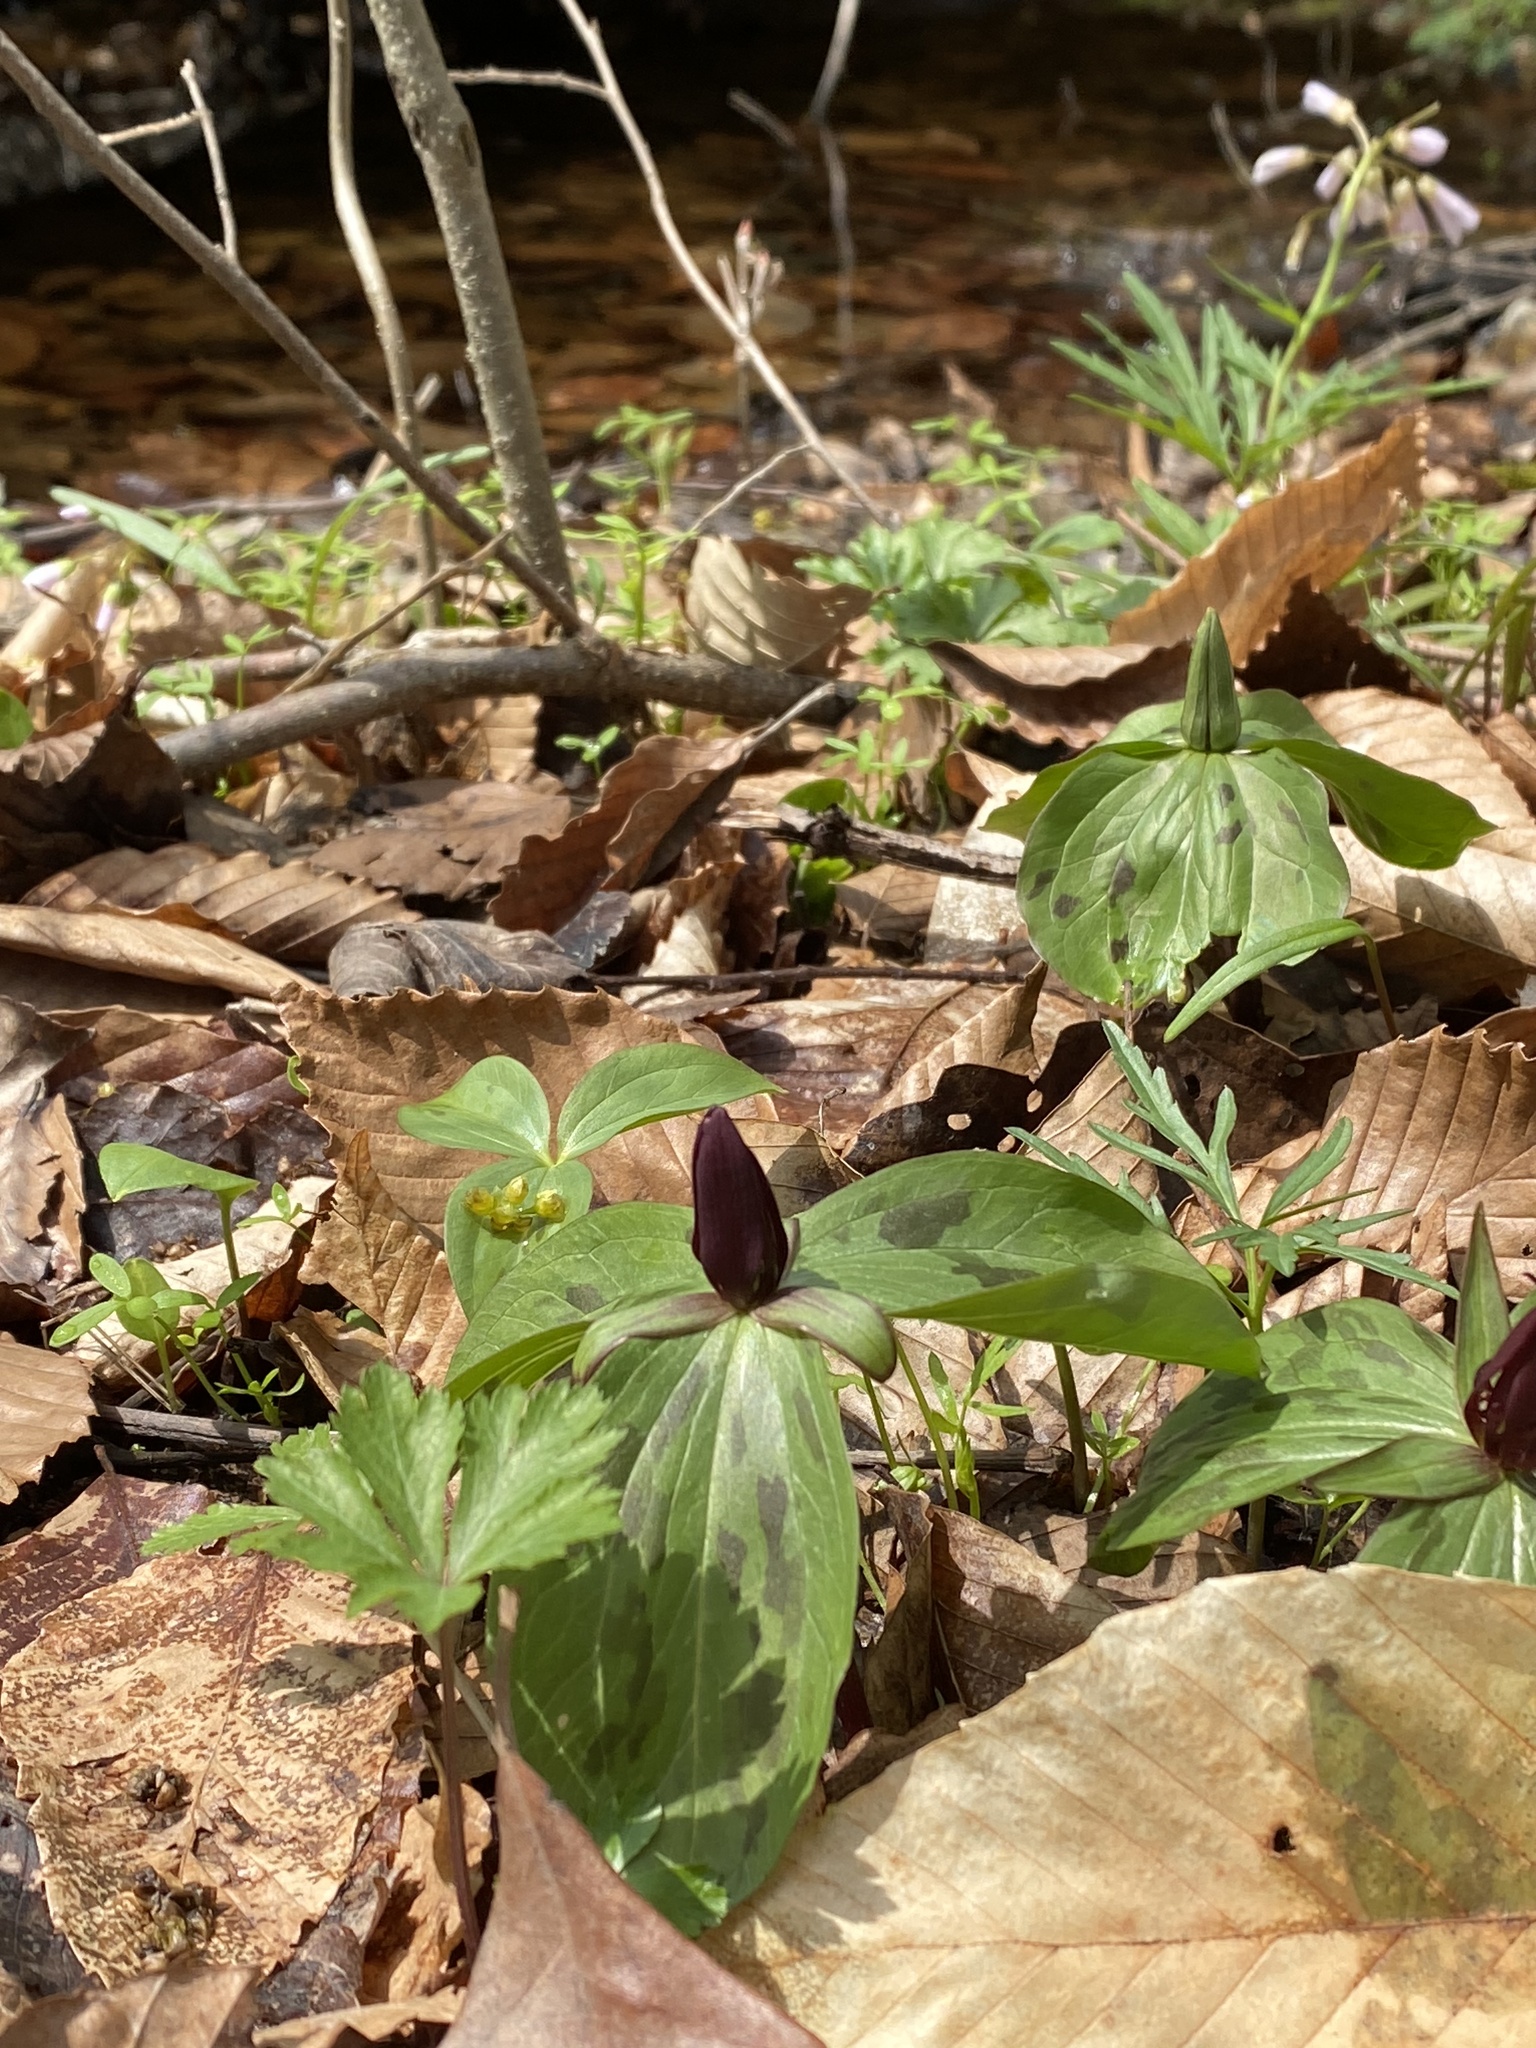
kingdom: Plantae
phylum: Tracheophyta
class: Liliopsida
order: Liliales
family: Melanthiaceae
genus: Trillium
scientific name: Trillium sessile
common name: Sessile trillium
